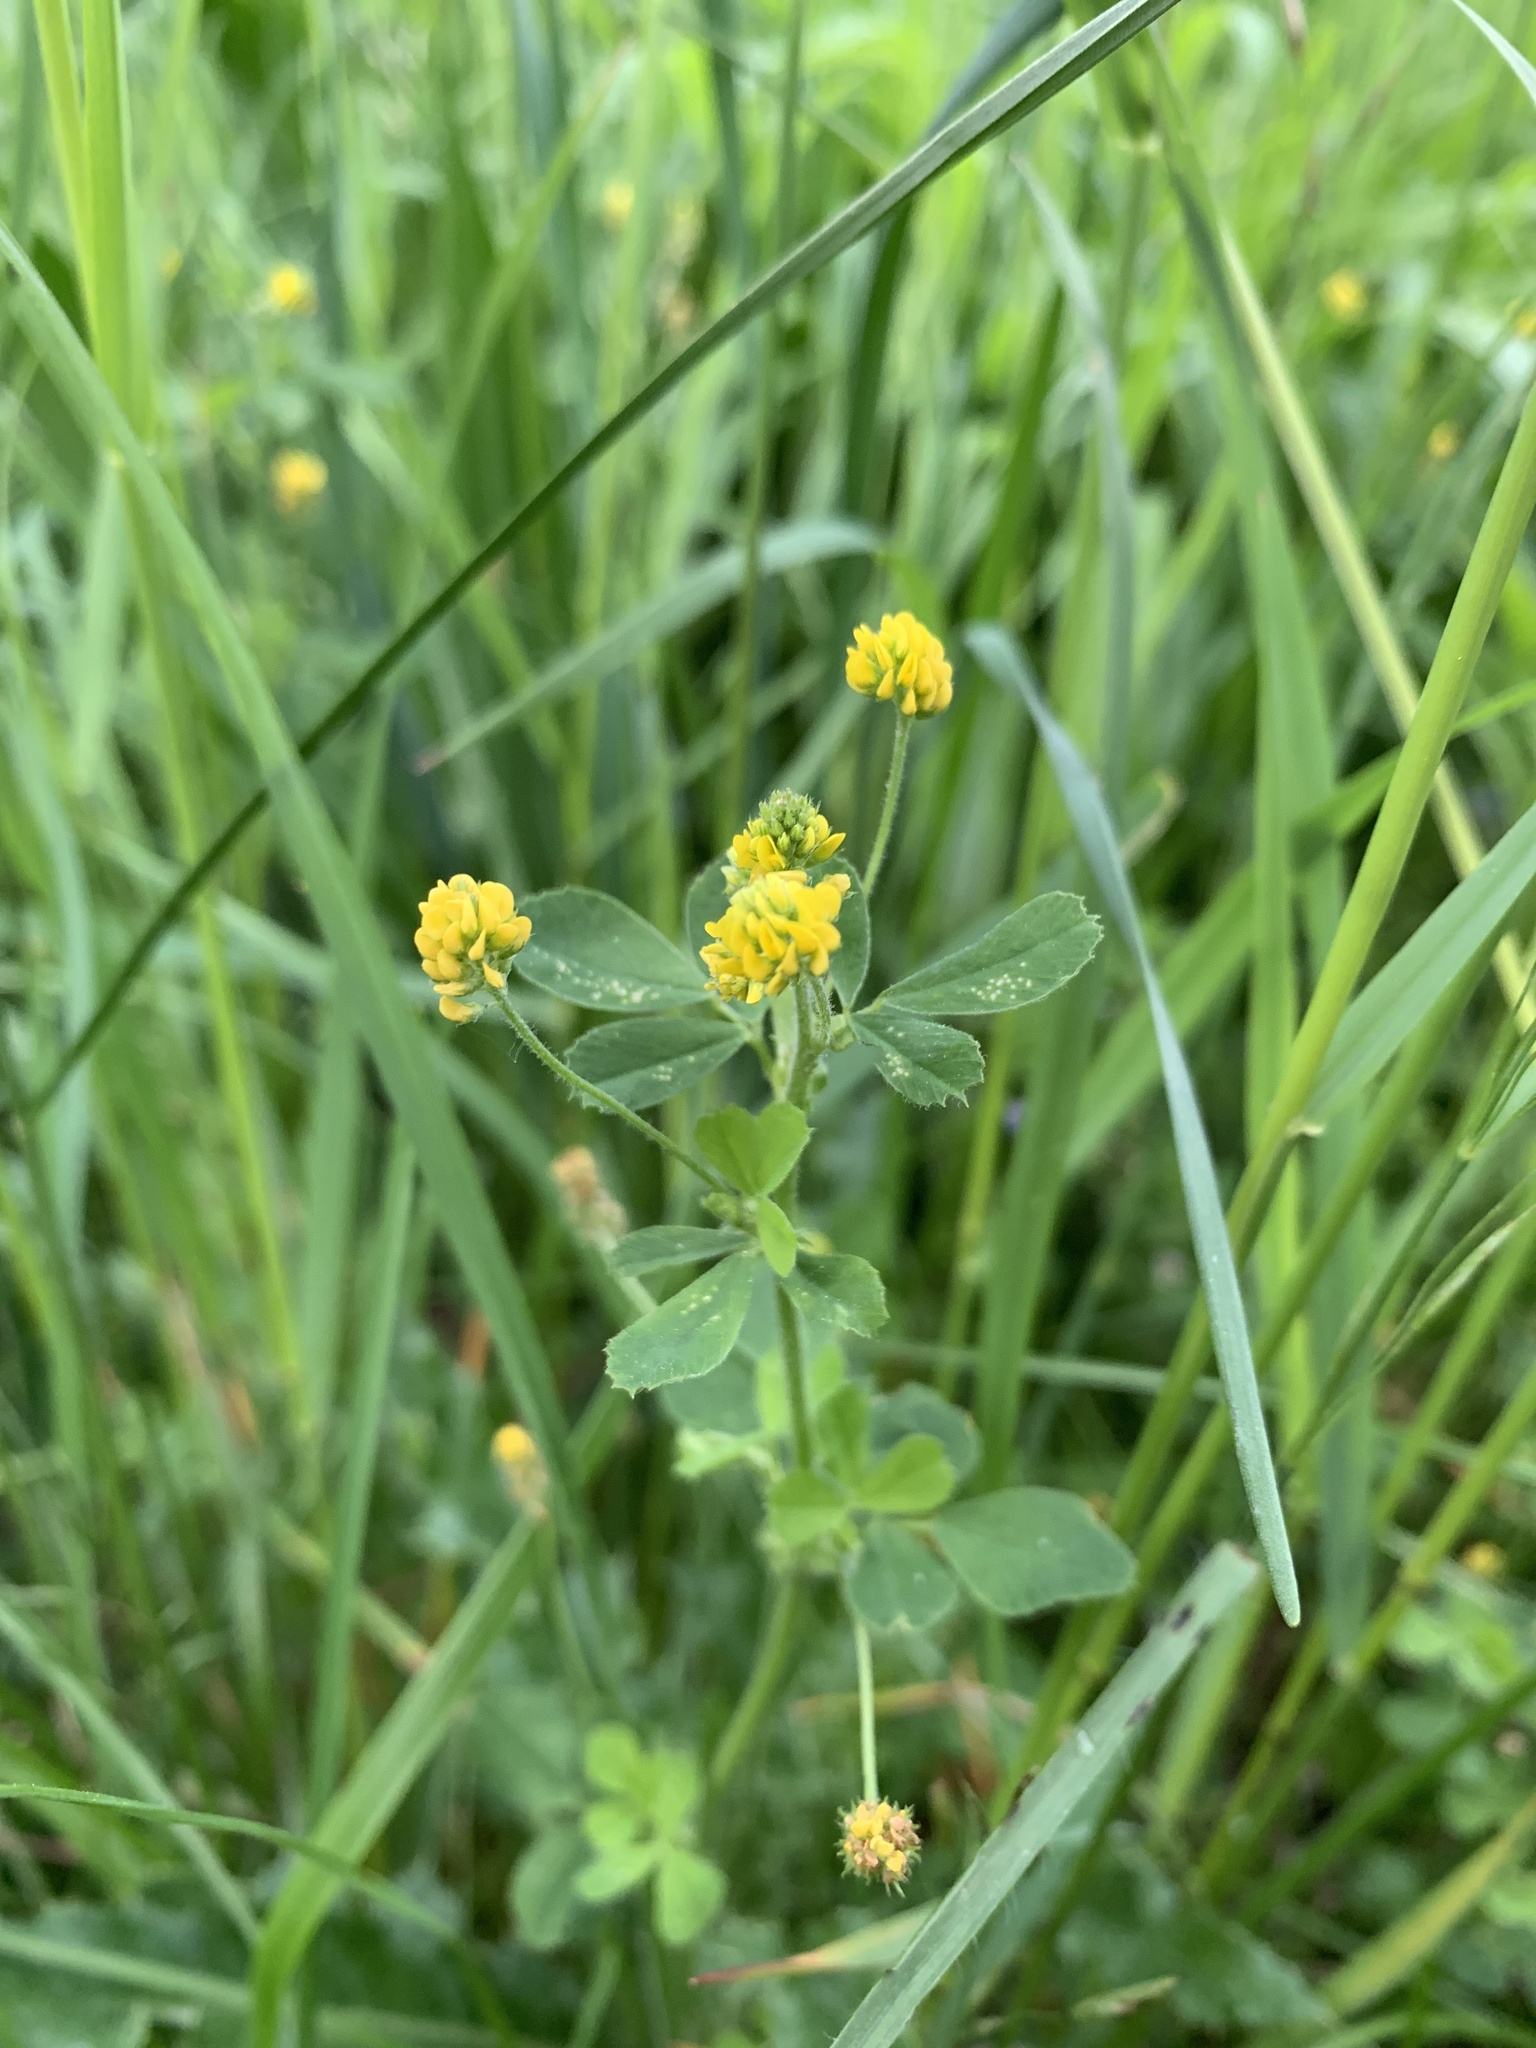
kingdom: Plantae
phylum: Tracheophyta
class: Magnoliopsida
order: Fabales
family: Fabaceae
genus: Medicago
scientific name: Medicago lupulina
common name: Black medick
